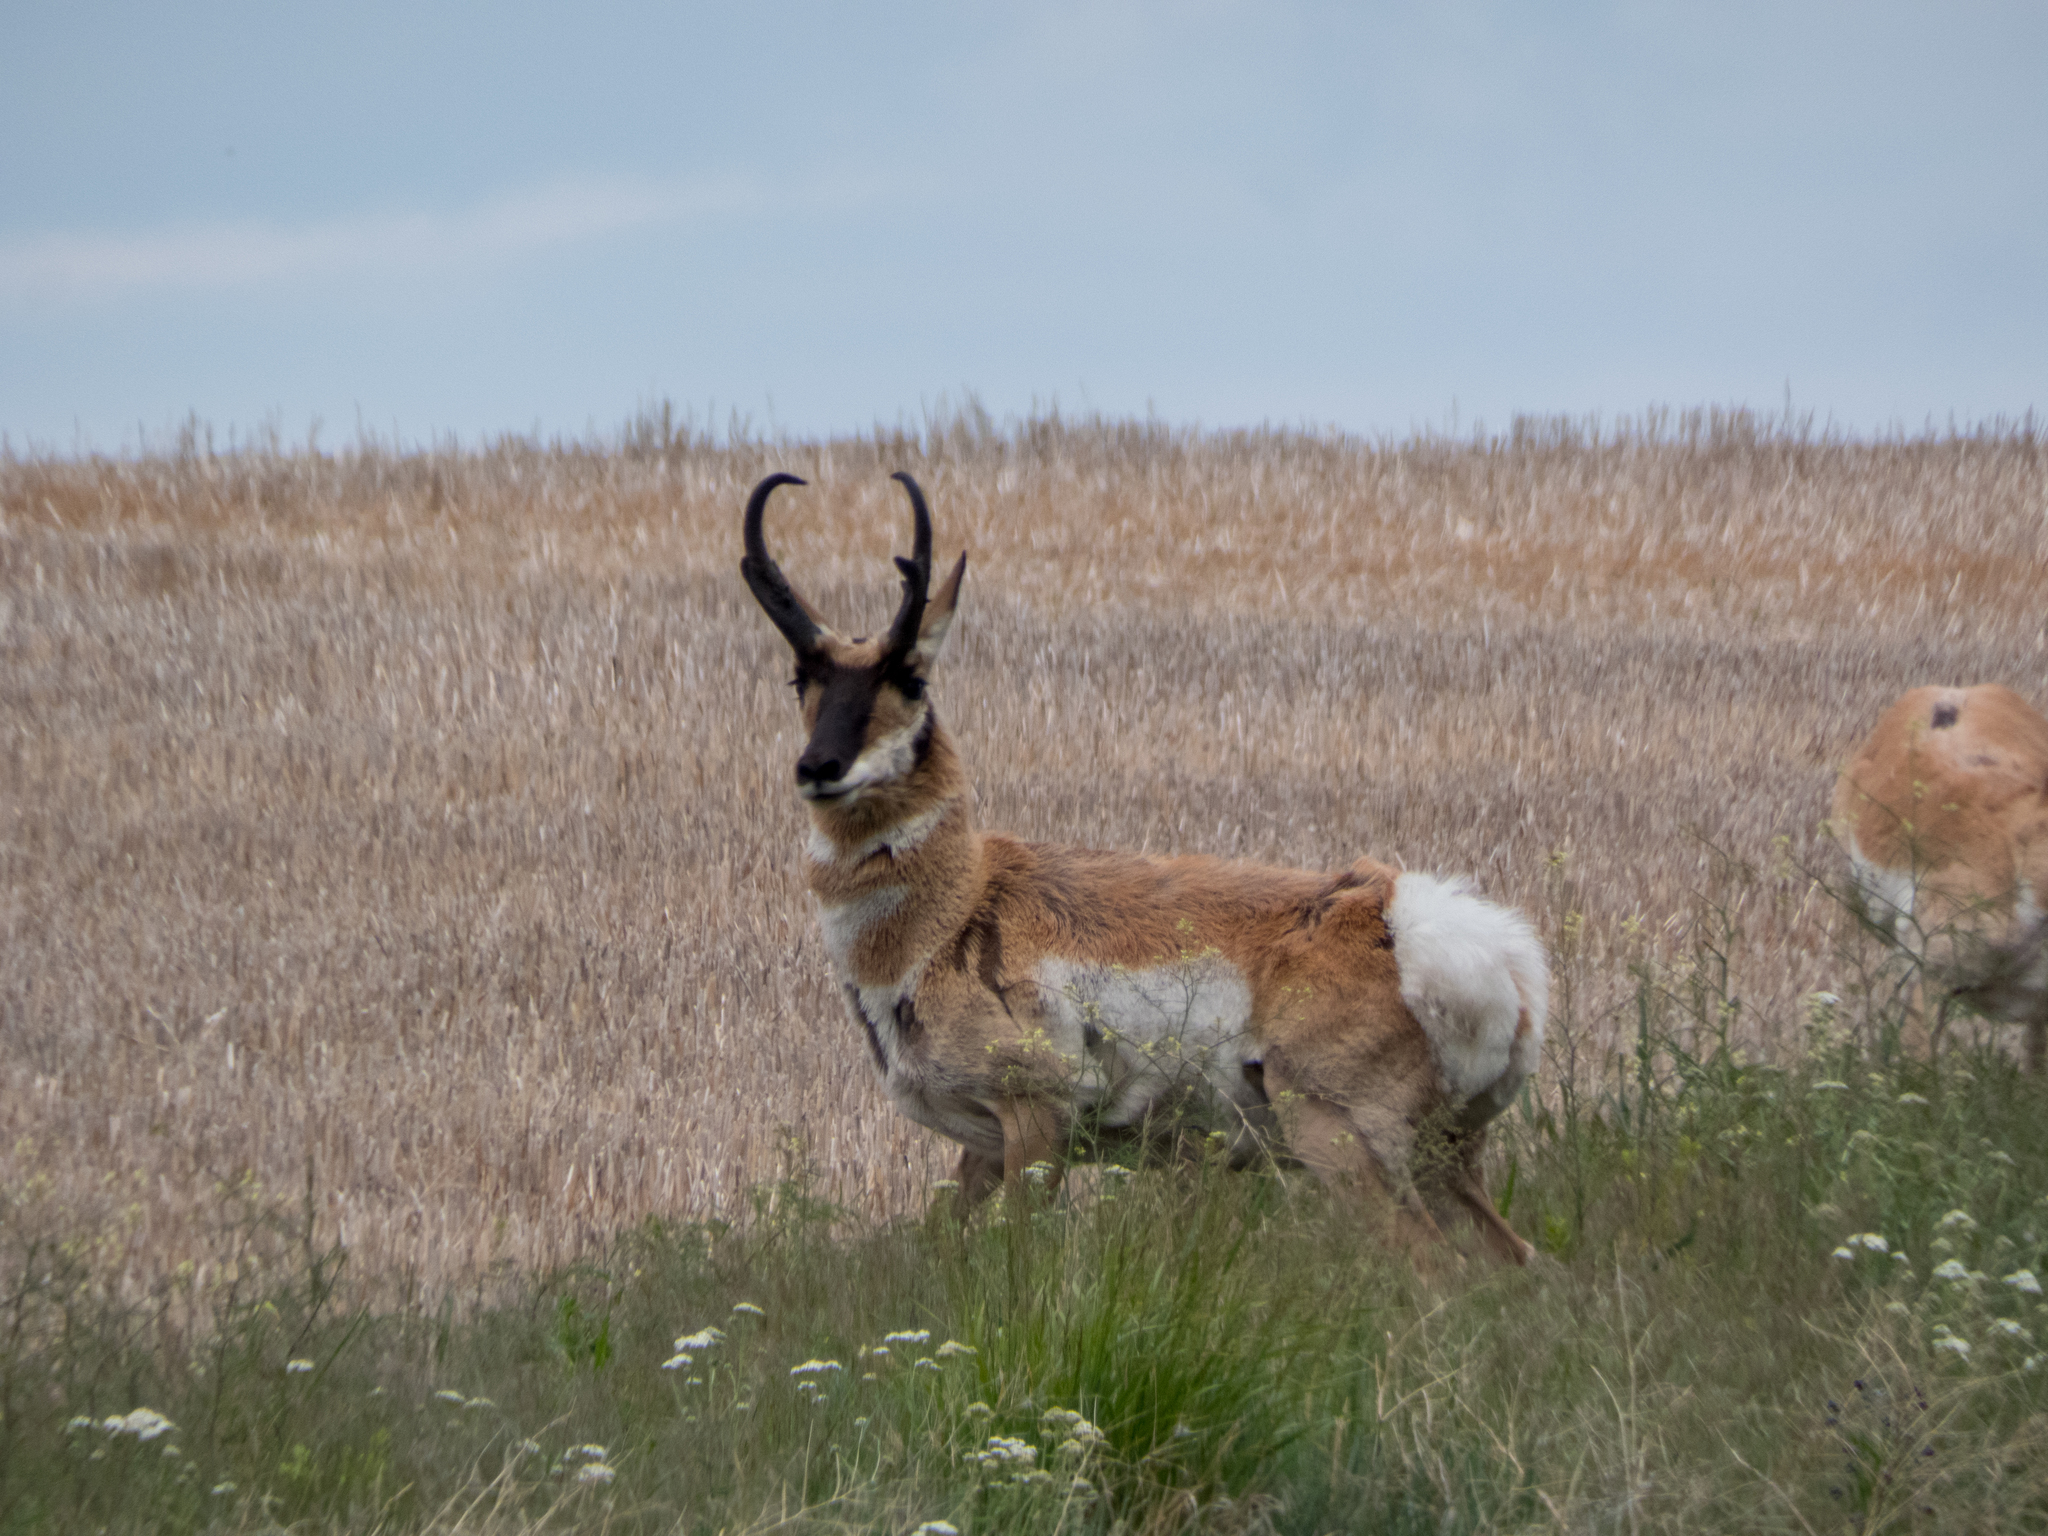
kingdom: Animalia
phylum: Chordata
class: Mammalia
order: Artiodactyla
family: Antilocapridae
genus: Antilocapra
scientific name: Antilocapra americana
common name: Pronghorn
